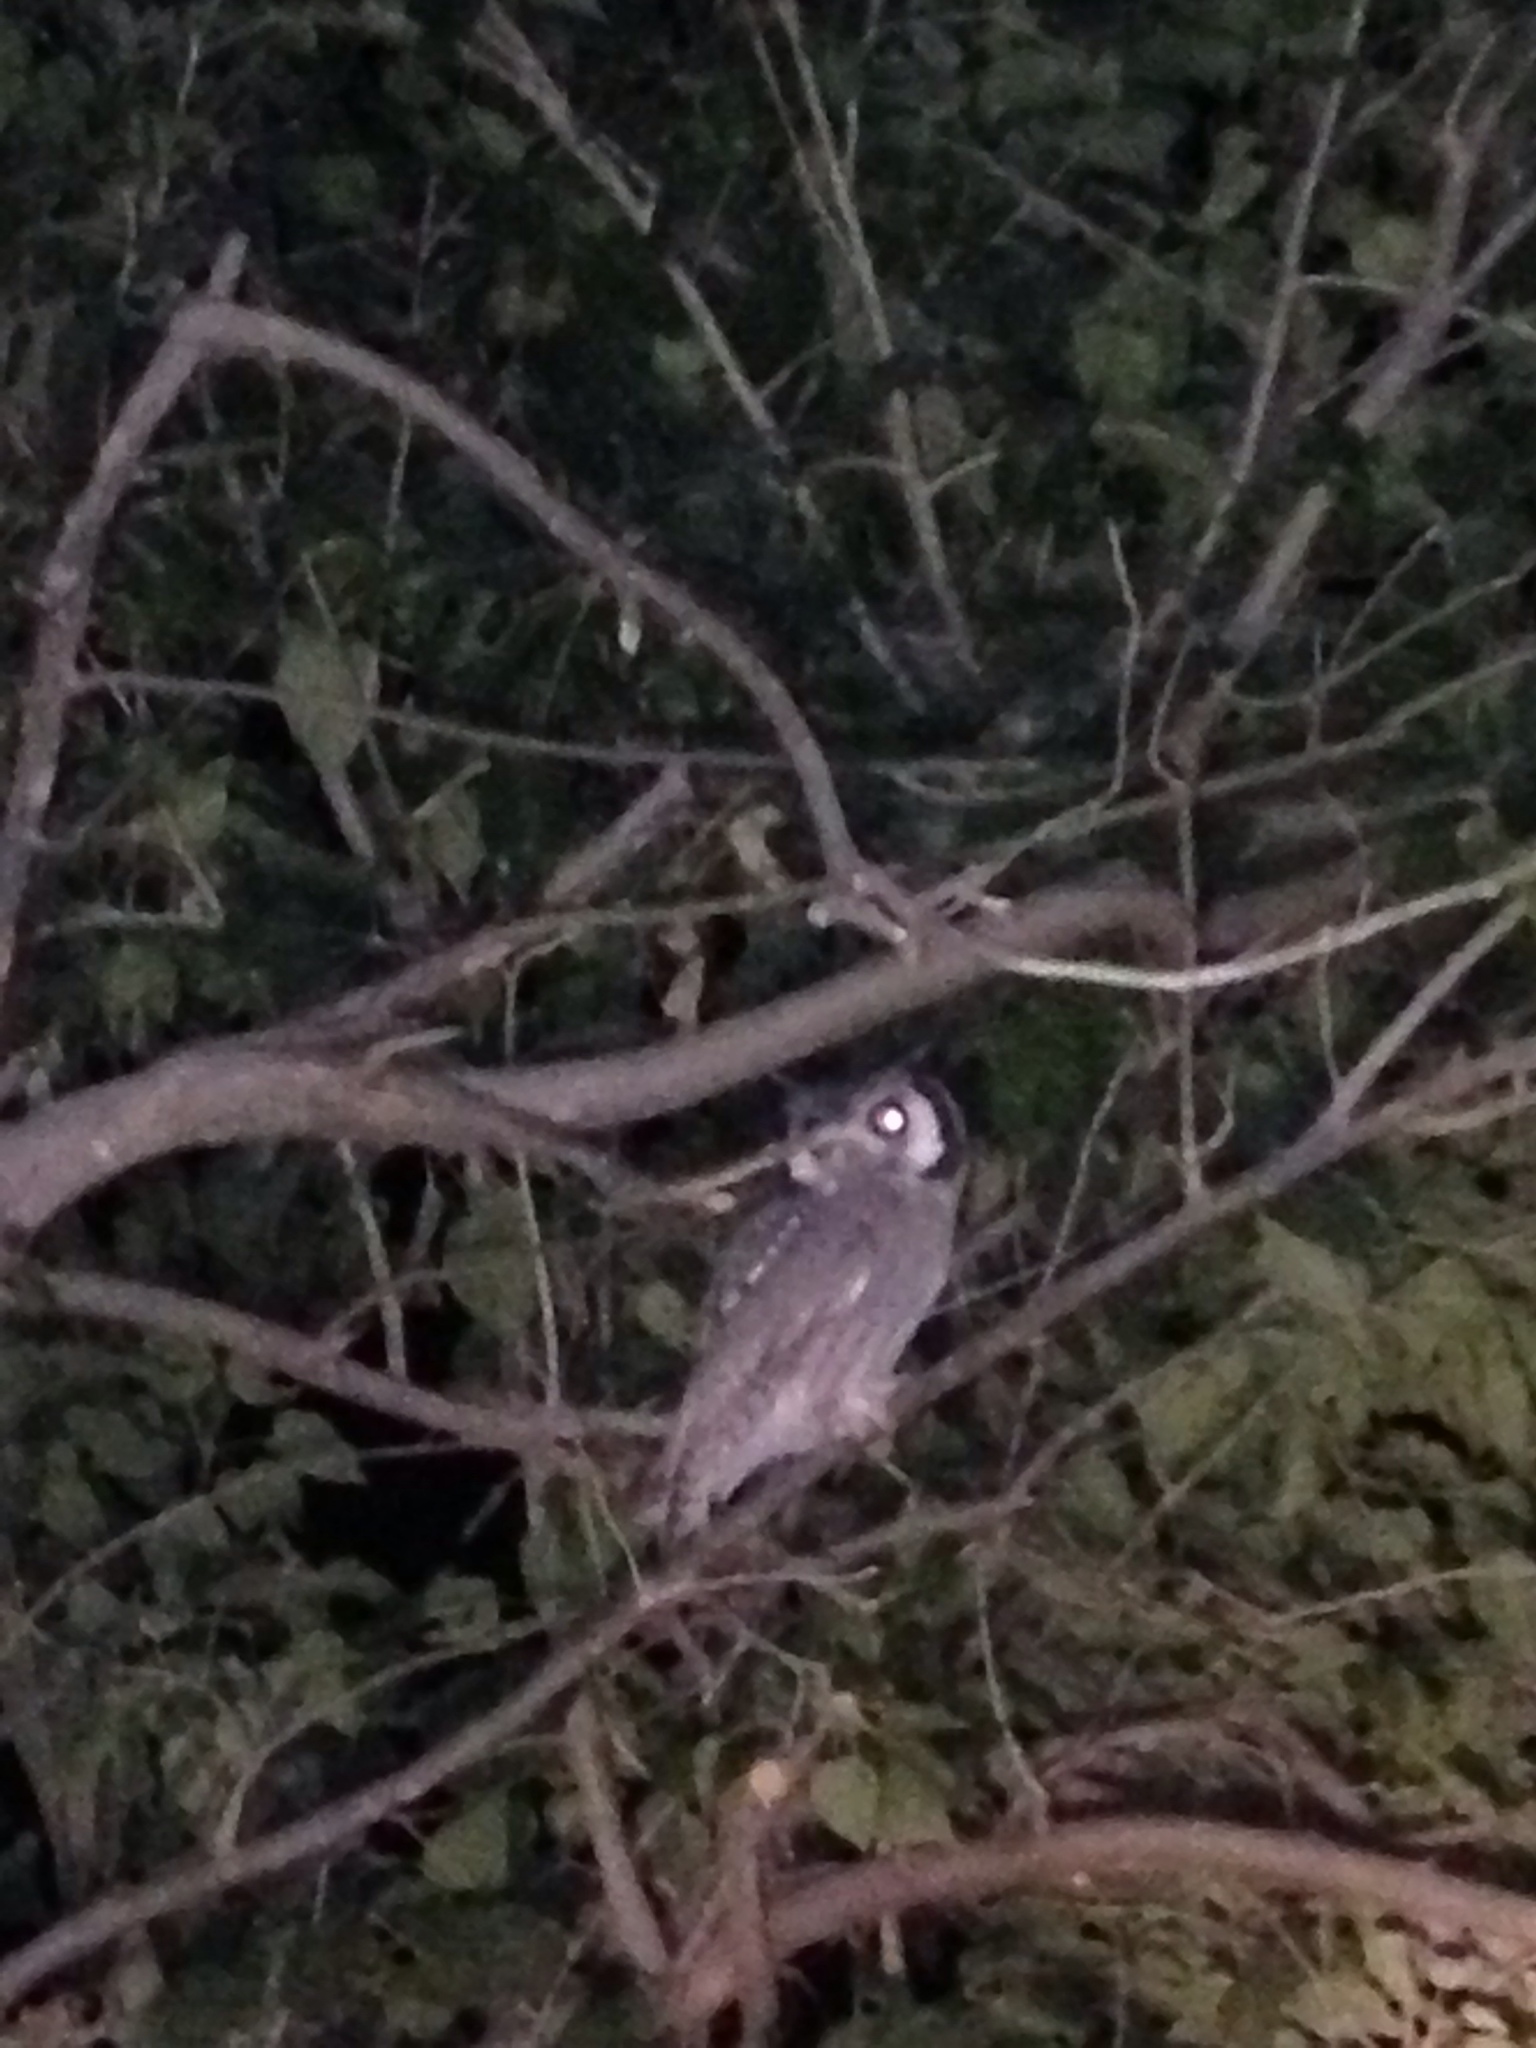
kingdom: Animalia
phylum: Chordata
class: Aves
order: Strigiformes
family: Strigidae
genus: Ptilopsis
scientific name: Ptilopsis granti
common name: Southern white-faced owl
